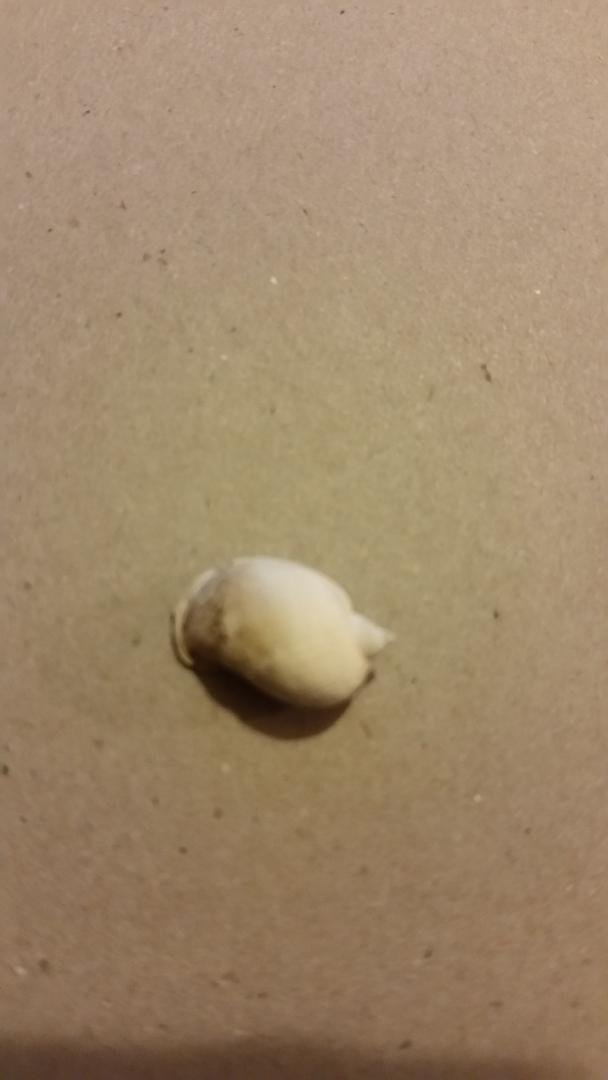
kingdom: Animalia
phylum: Mollusca
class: Gastropoda
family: Lymnaeidae
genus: Ampullaceana
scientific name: Ampullaceana balthica
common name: Wandering pond snail
